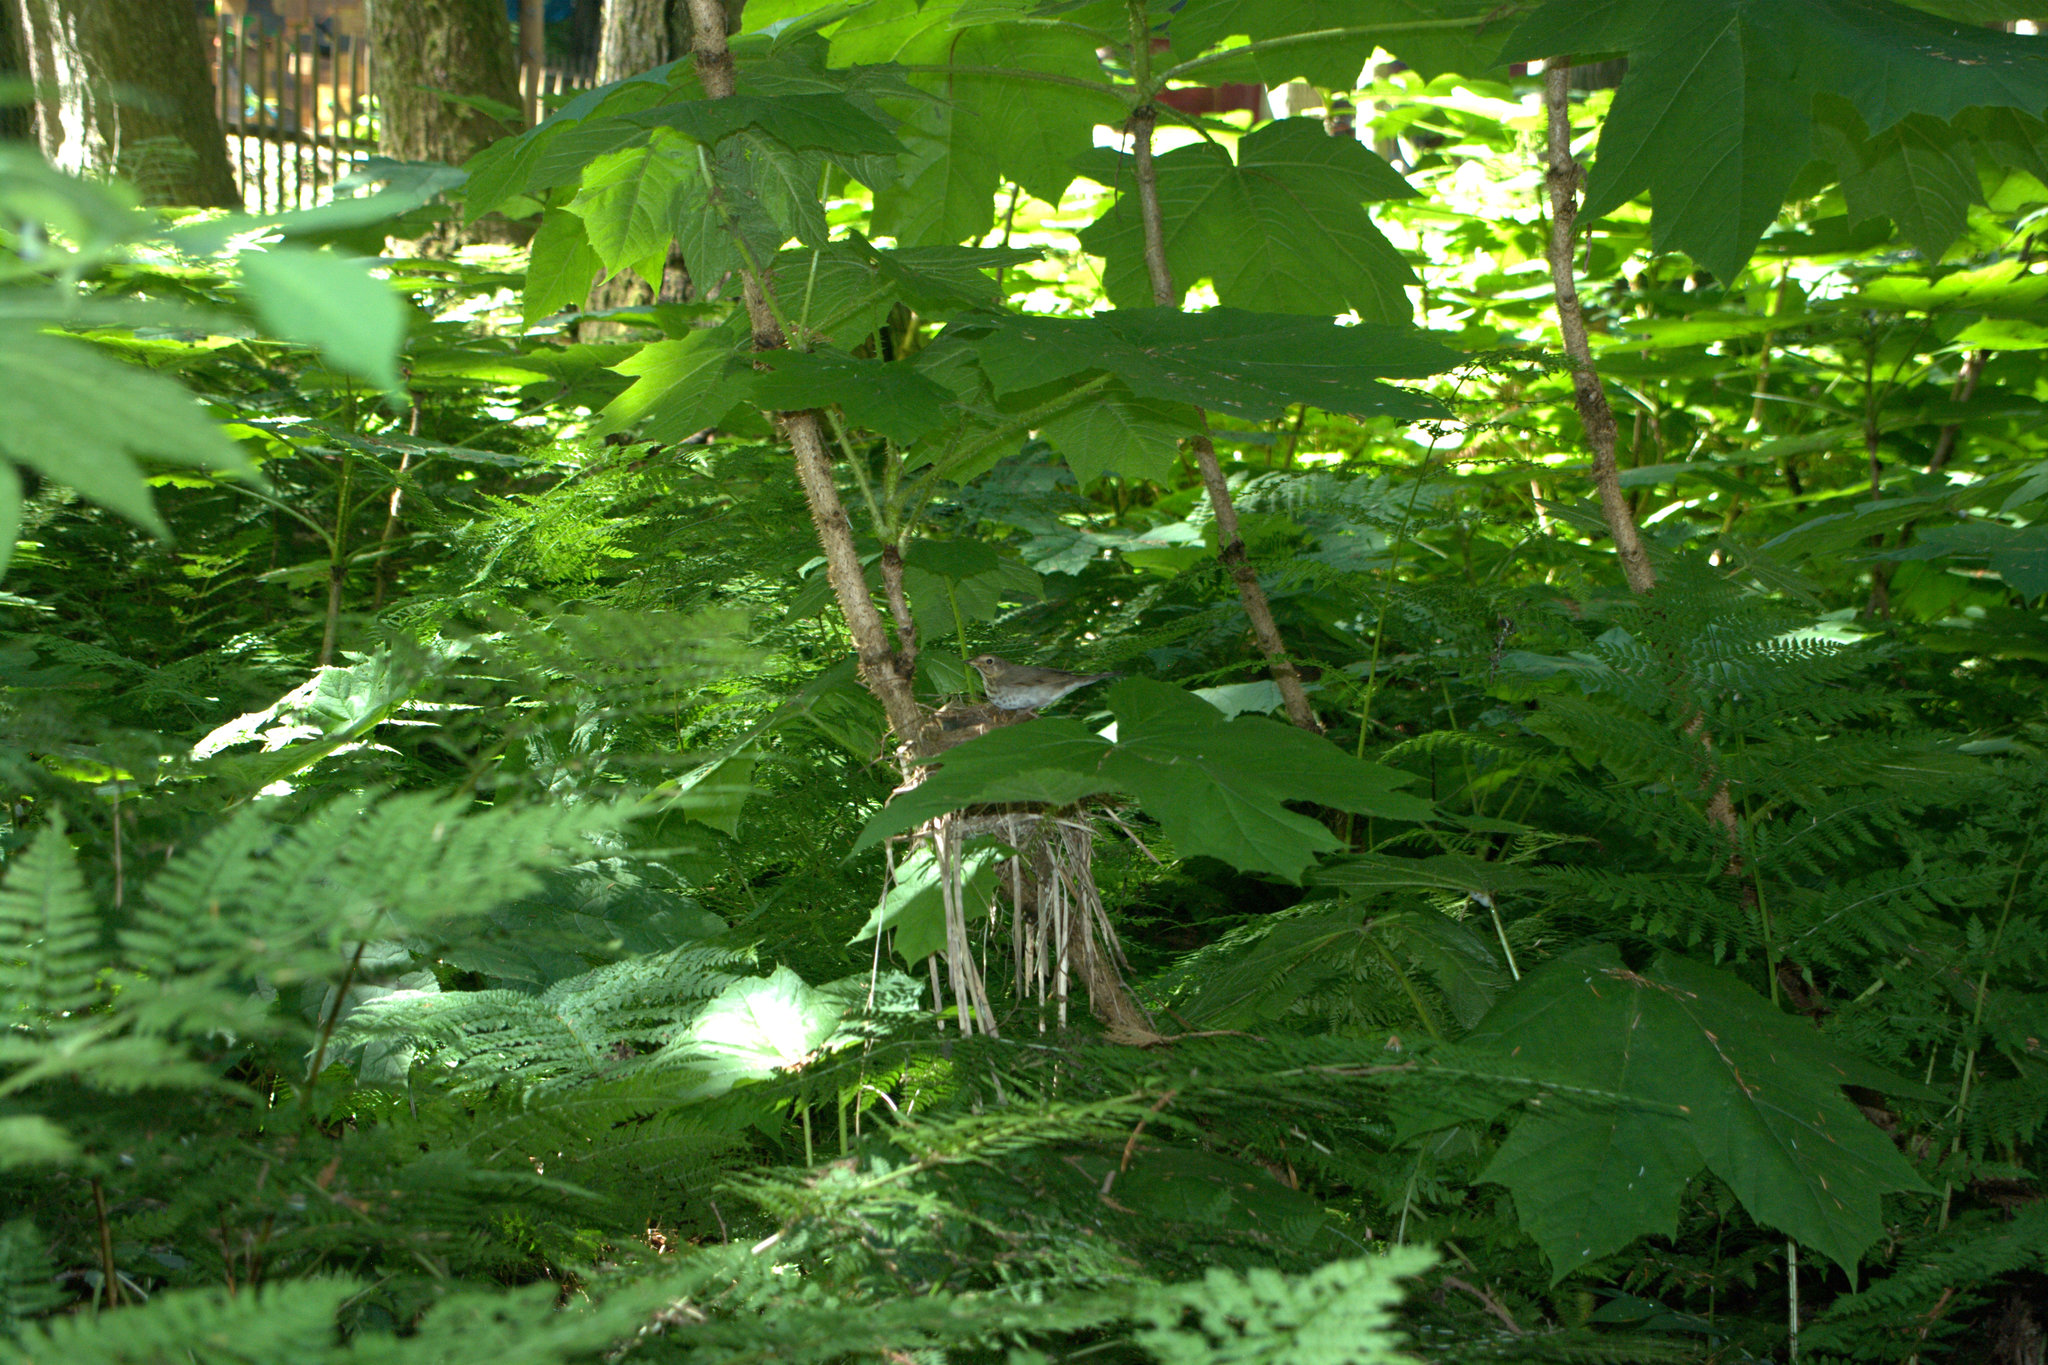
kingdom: Animalia
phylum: Chordata
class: Aves
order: Passeriformes
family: Turdidae
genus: Catharus
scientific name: Catharus ustulatus
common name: Swainson's thrush
